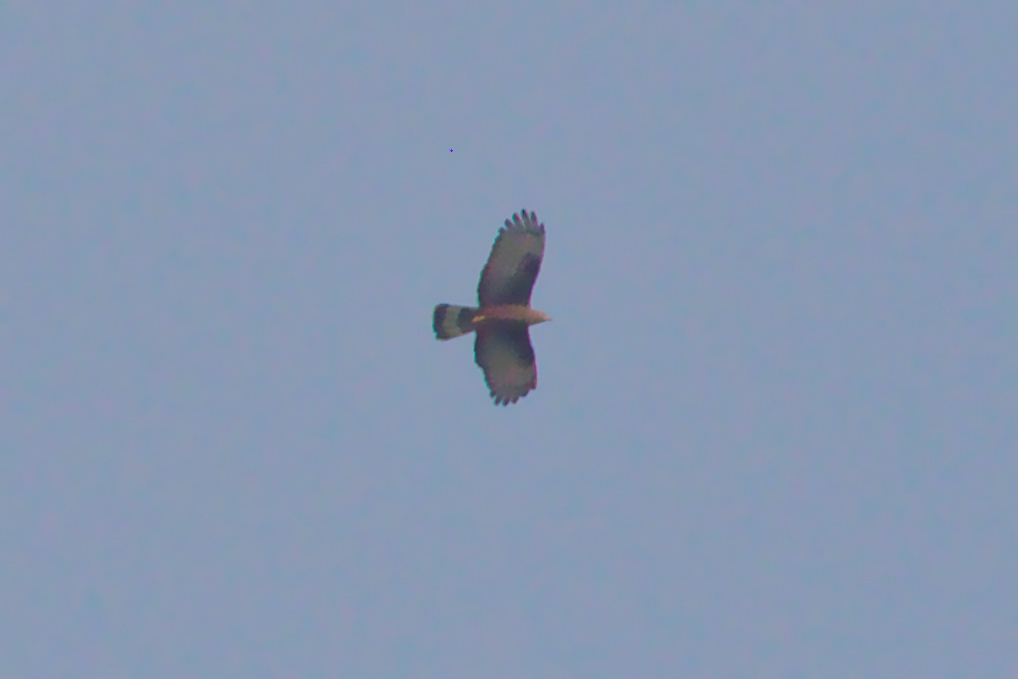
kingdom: Animalia
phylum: Chordata
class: Aves
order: Accipitriformes
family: Accipitridae
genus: Pernis
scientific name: Pernis ptilorhynchus
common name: Crested honey buzzard
